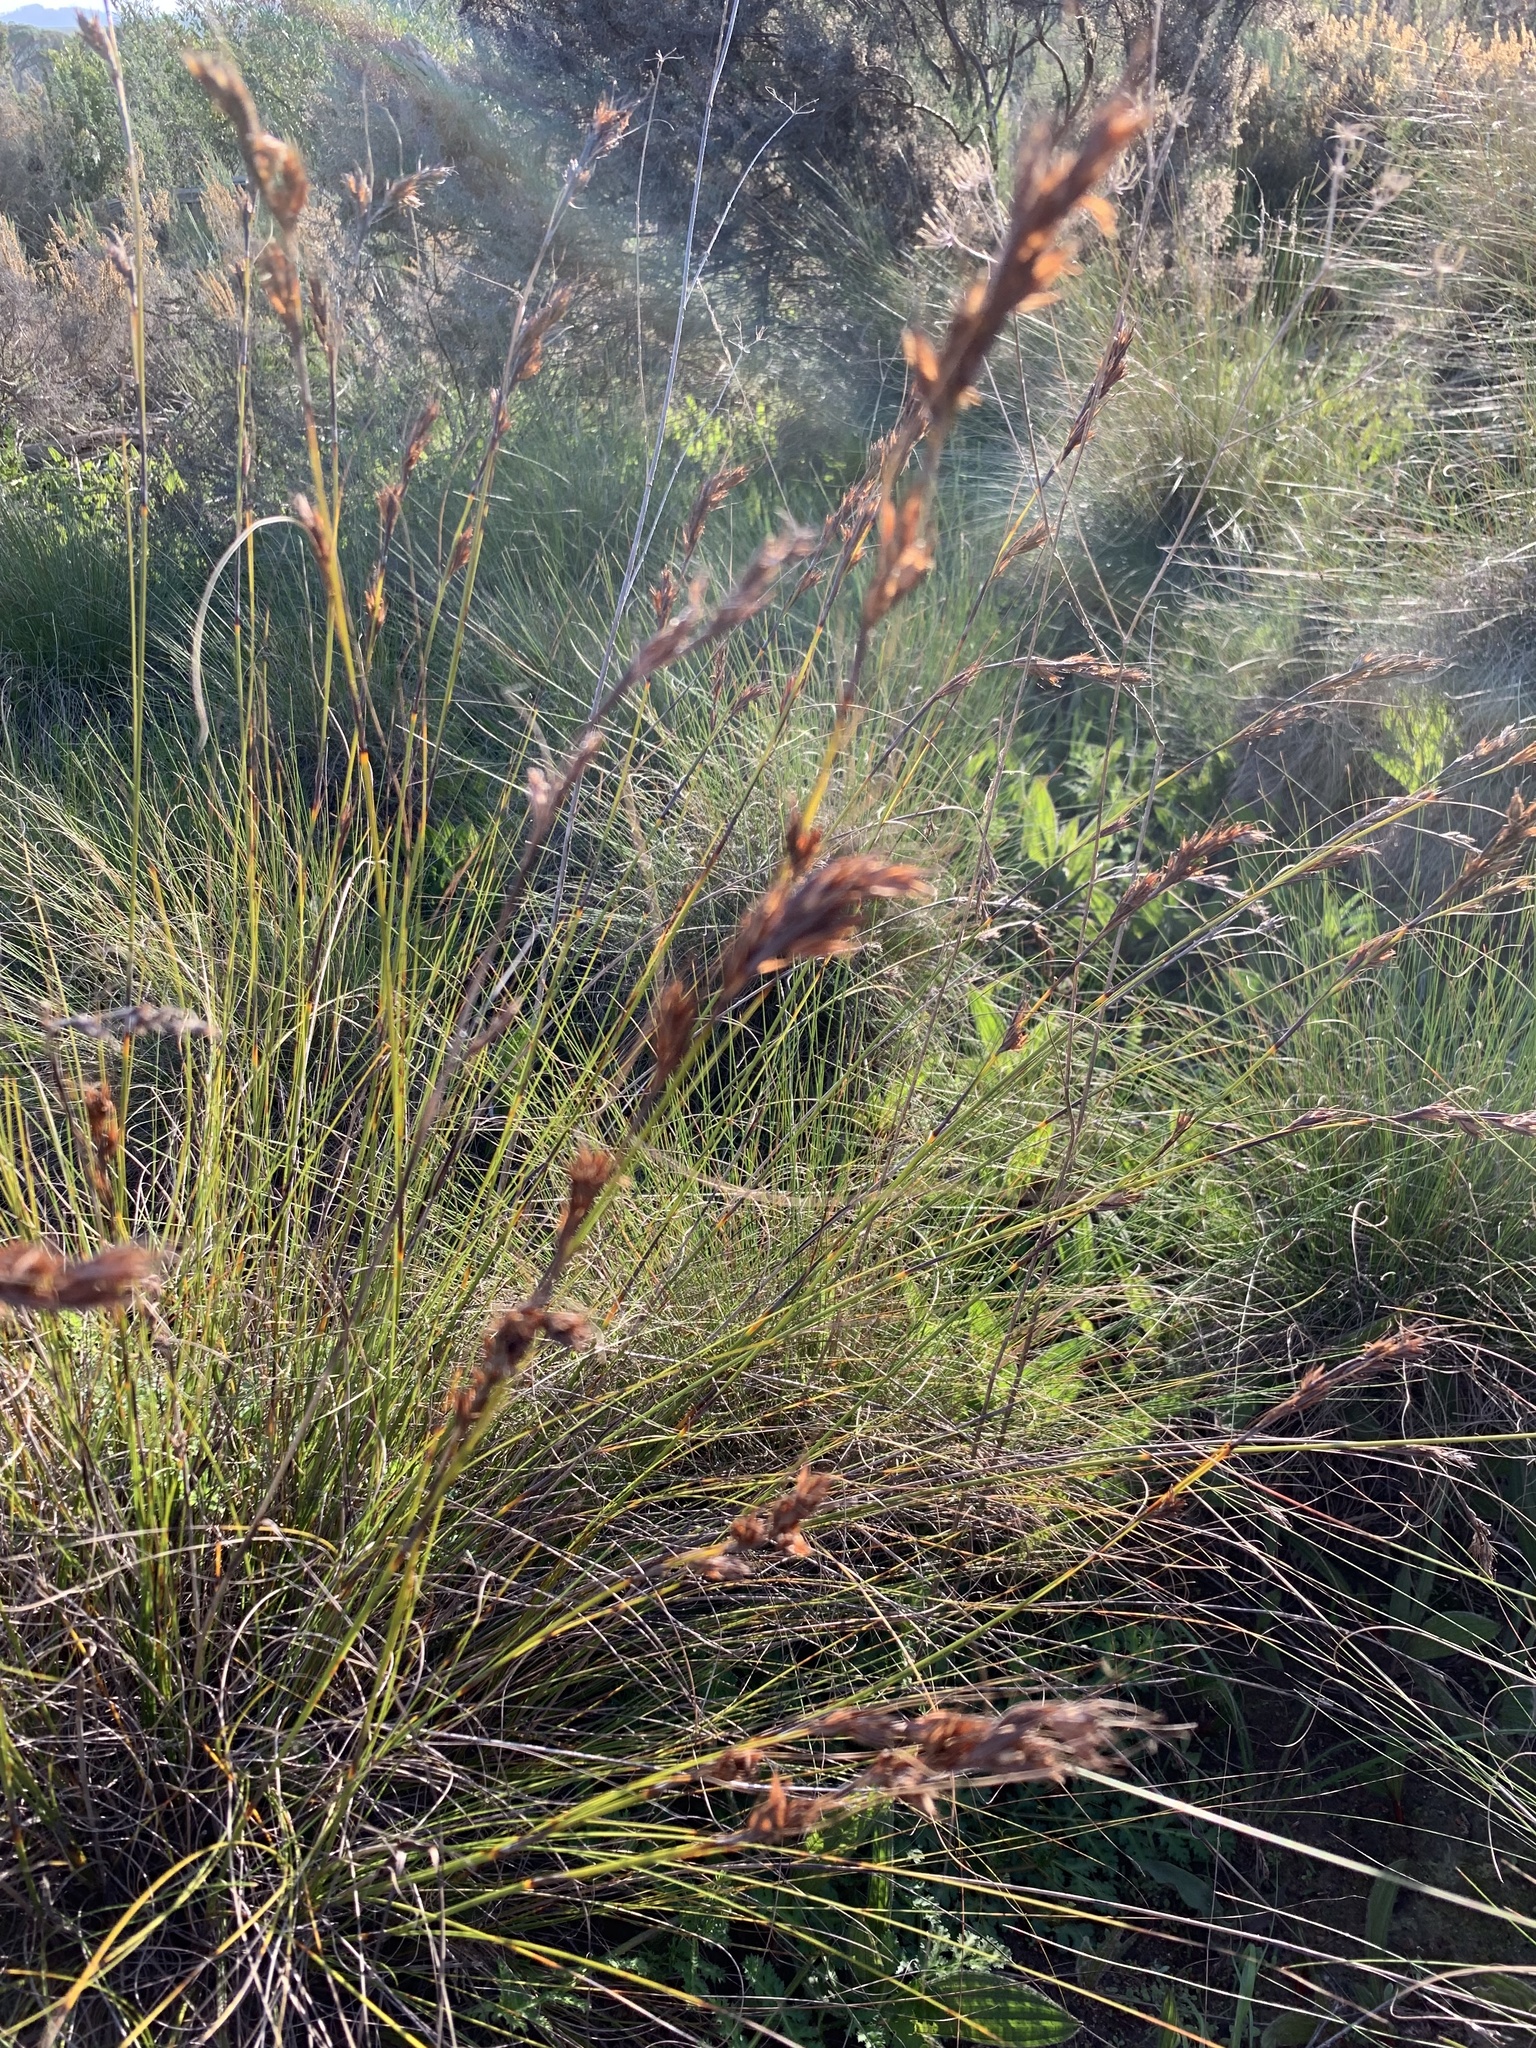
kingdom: Plantae
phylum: Tracheophyta
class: Liliopsida
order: Poales
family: Cyperaceae
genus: Tetraria
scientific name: Tetraria ustulata
